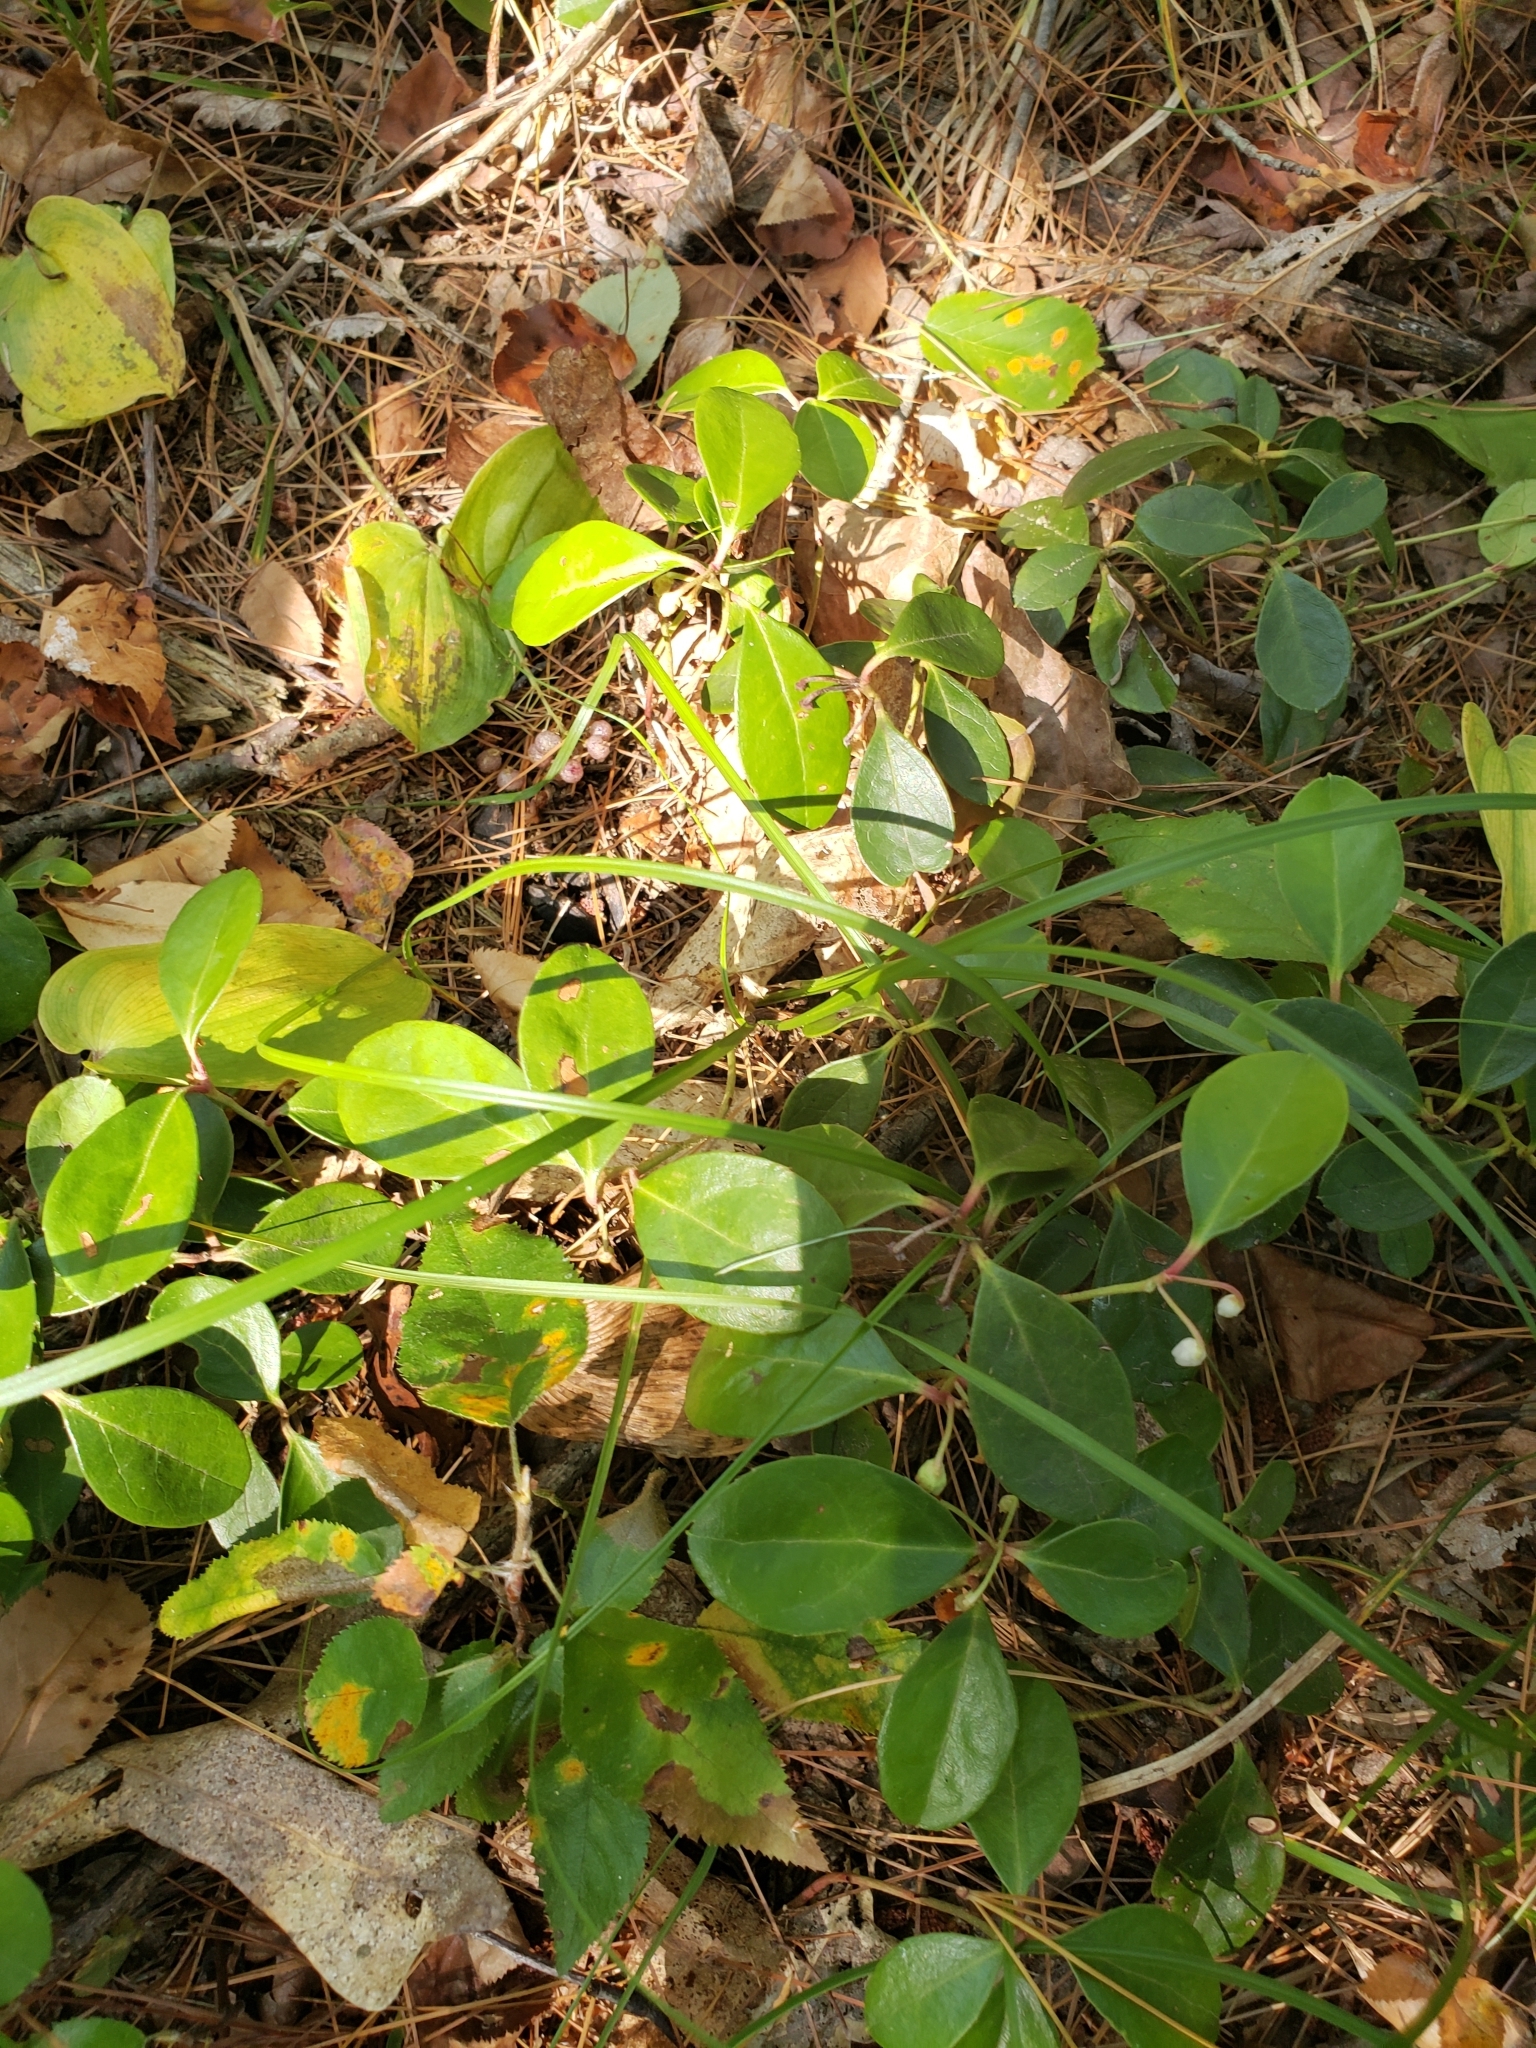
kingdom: Plantae
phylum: Tracheophyta
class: Magnoliopsida
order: Ericales
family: Ericaceae
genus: Gaultheria
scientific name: Gaultheria procumbens
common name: Checkerberry
